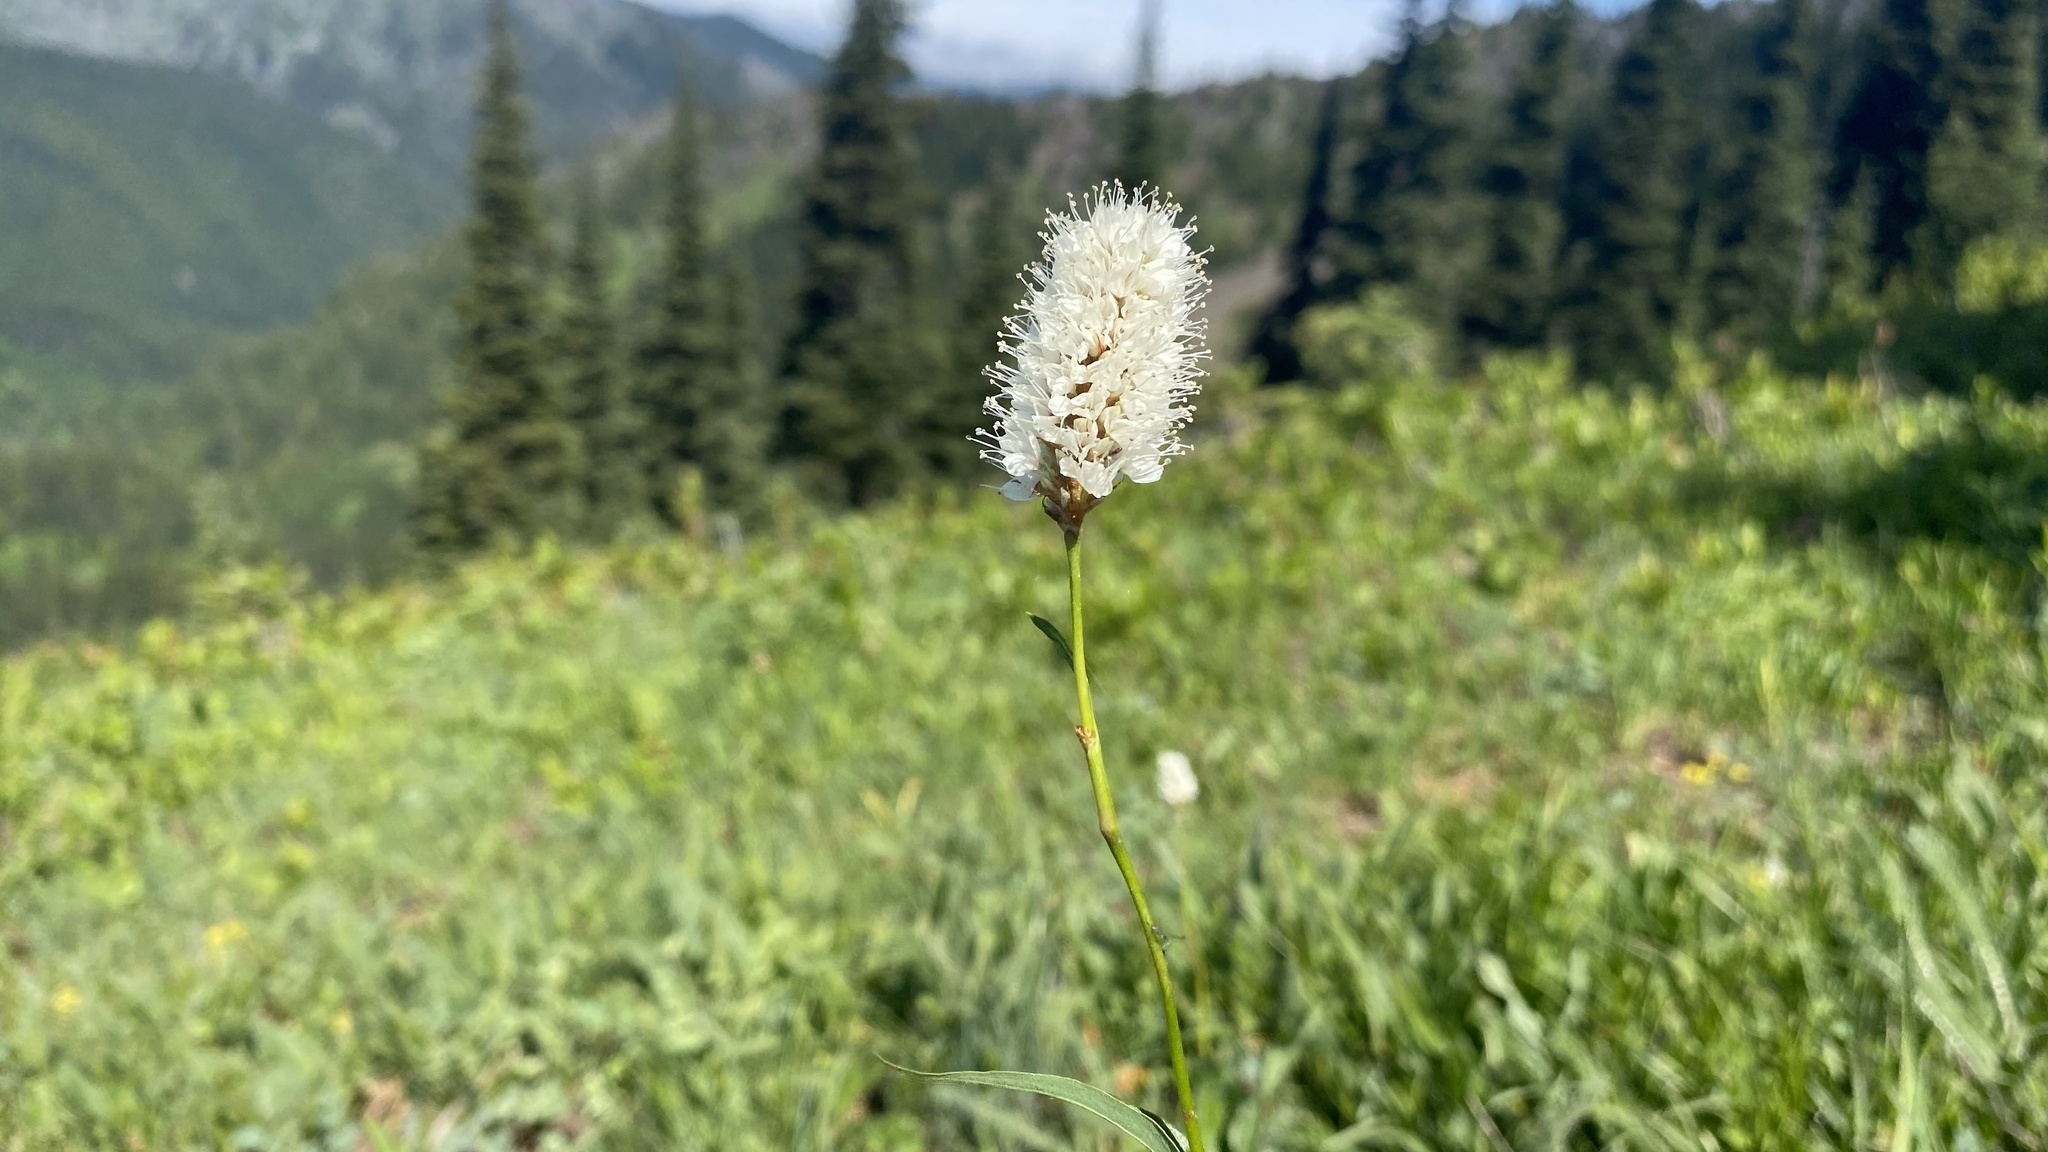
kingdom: Plantae
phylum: Tracheophyta
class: Magnoliopsida
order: Caryophyllales
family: Polygonaceae
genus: Bistorta
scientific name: Bistorta bistortoides
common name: American bistort
